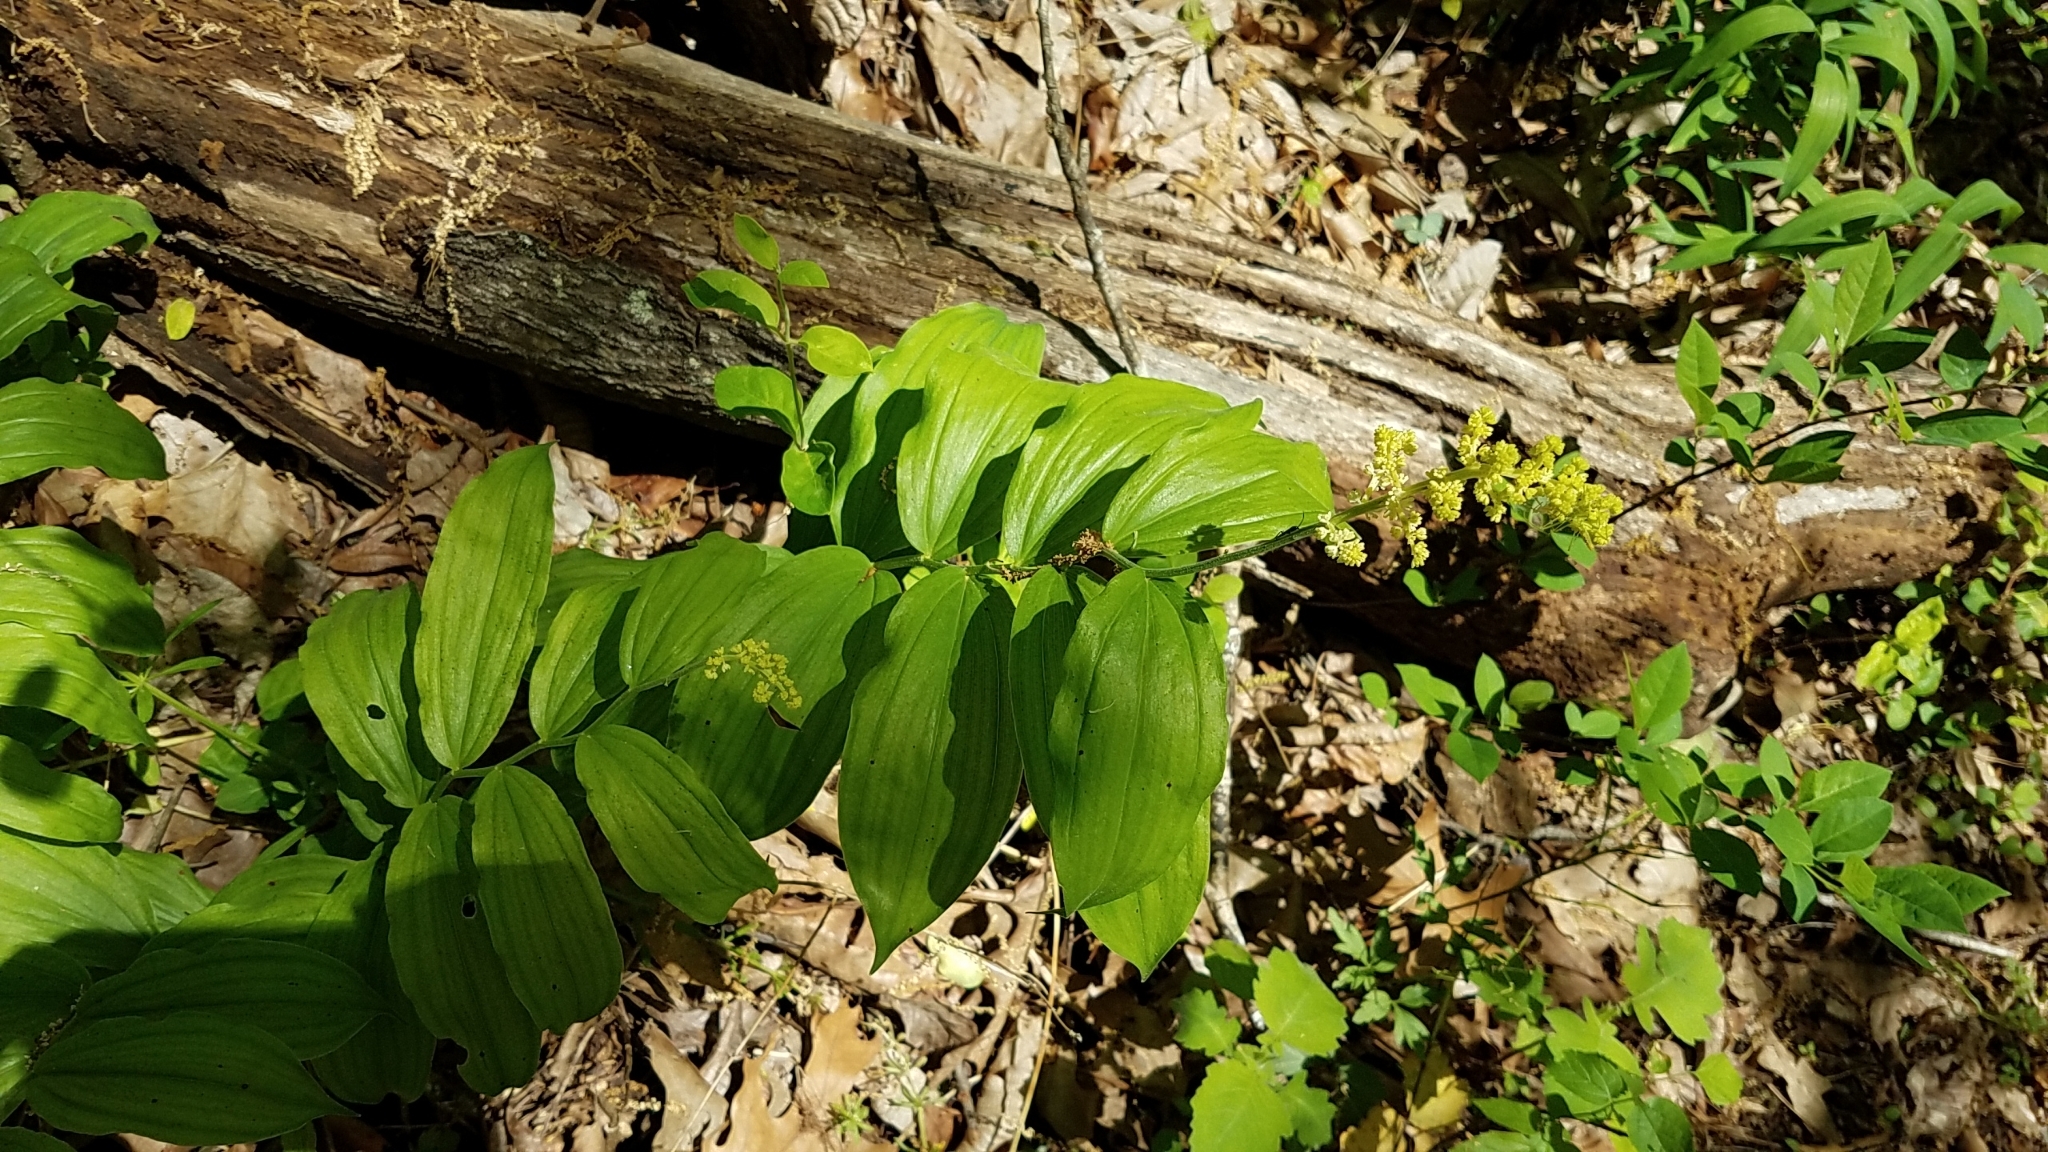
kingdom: Plantae
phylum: Tracheophyta
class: Liliopsida
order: Asparagales
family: Asparagaceae
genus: Maianthemum
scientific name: Maianthemum racemosum
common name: False spikenard
